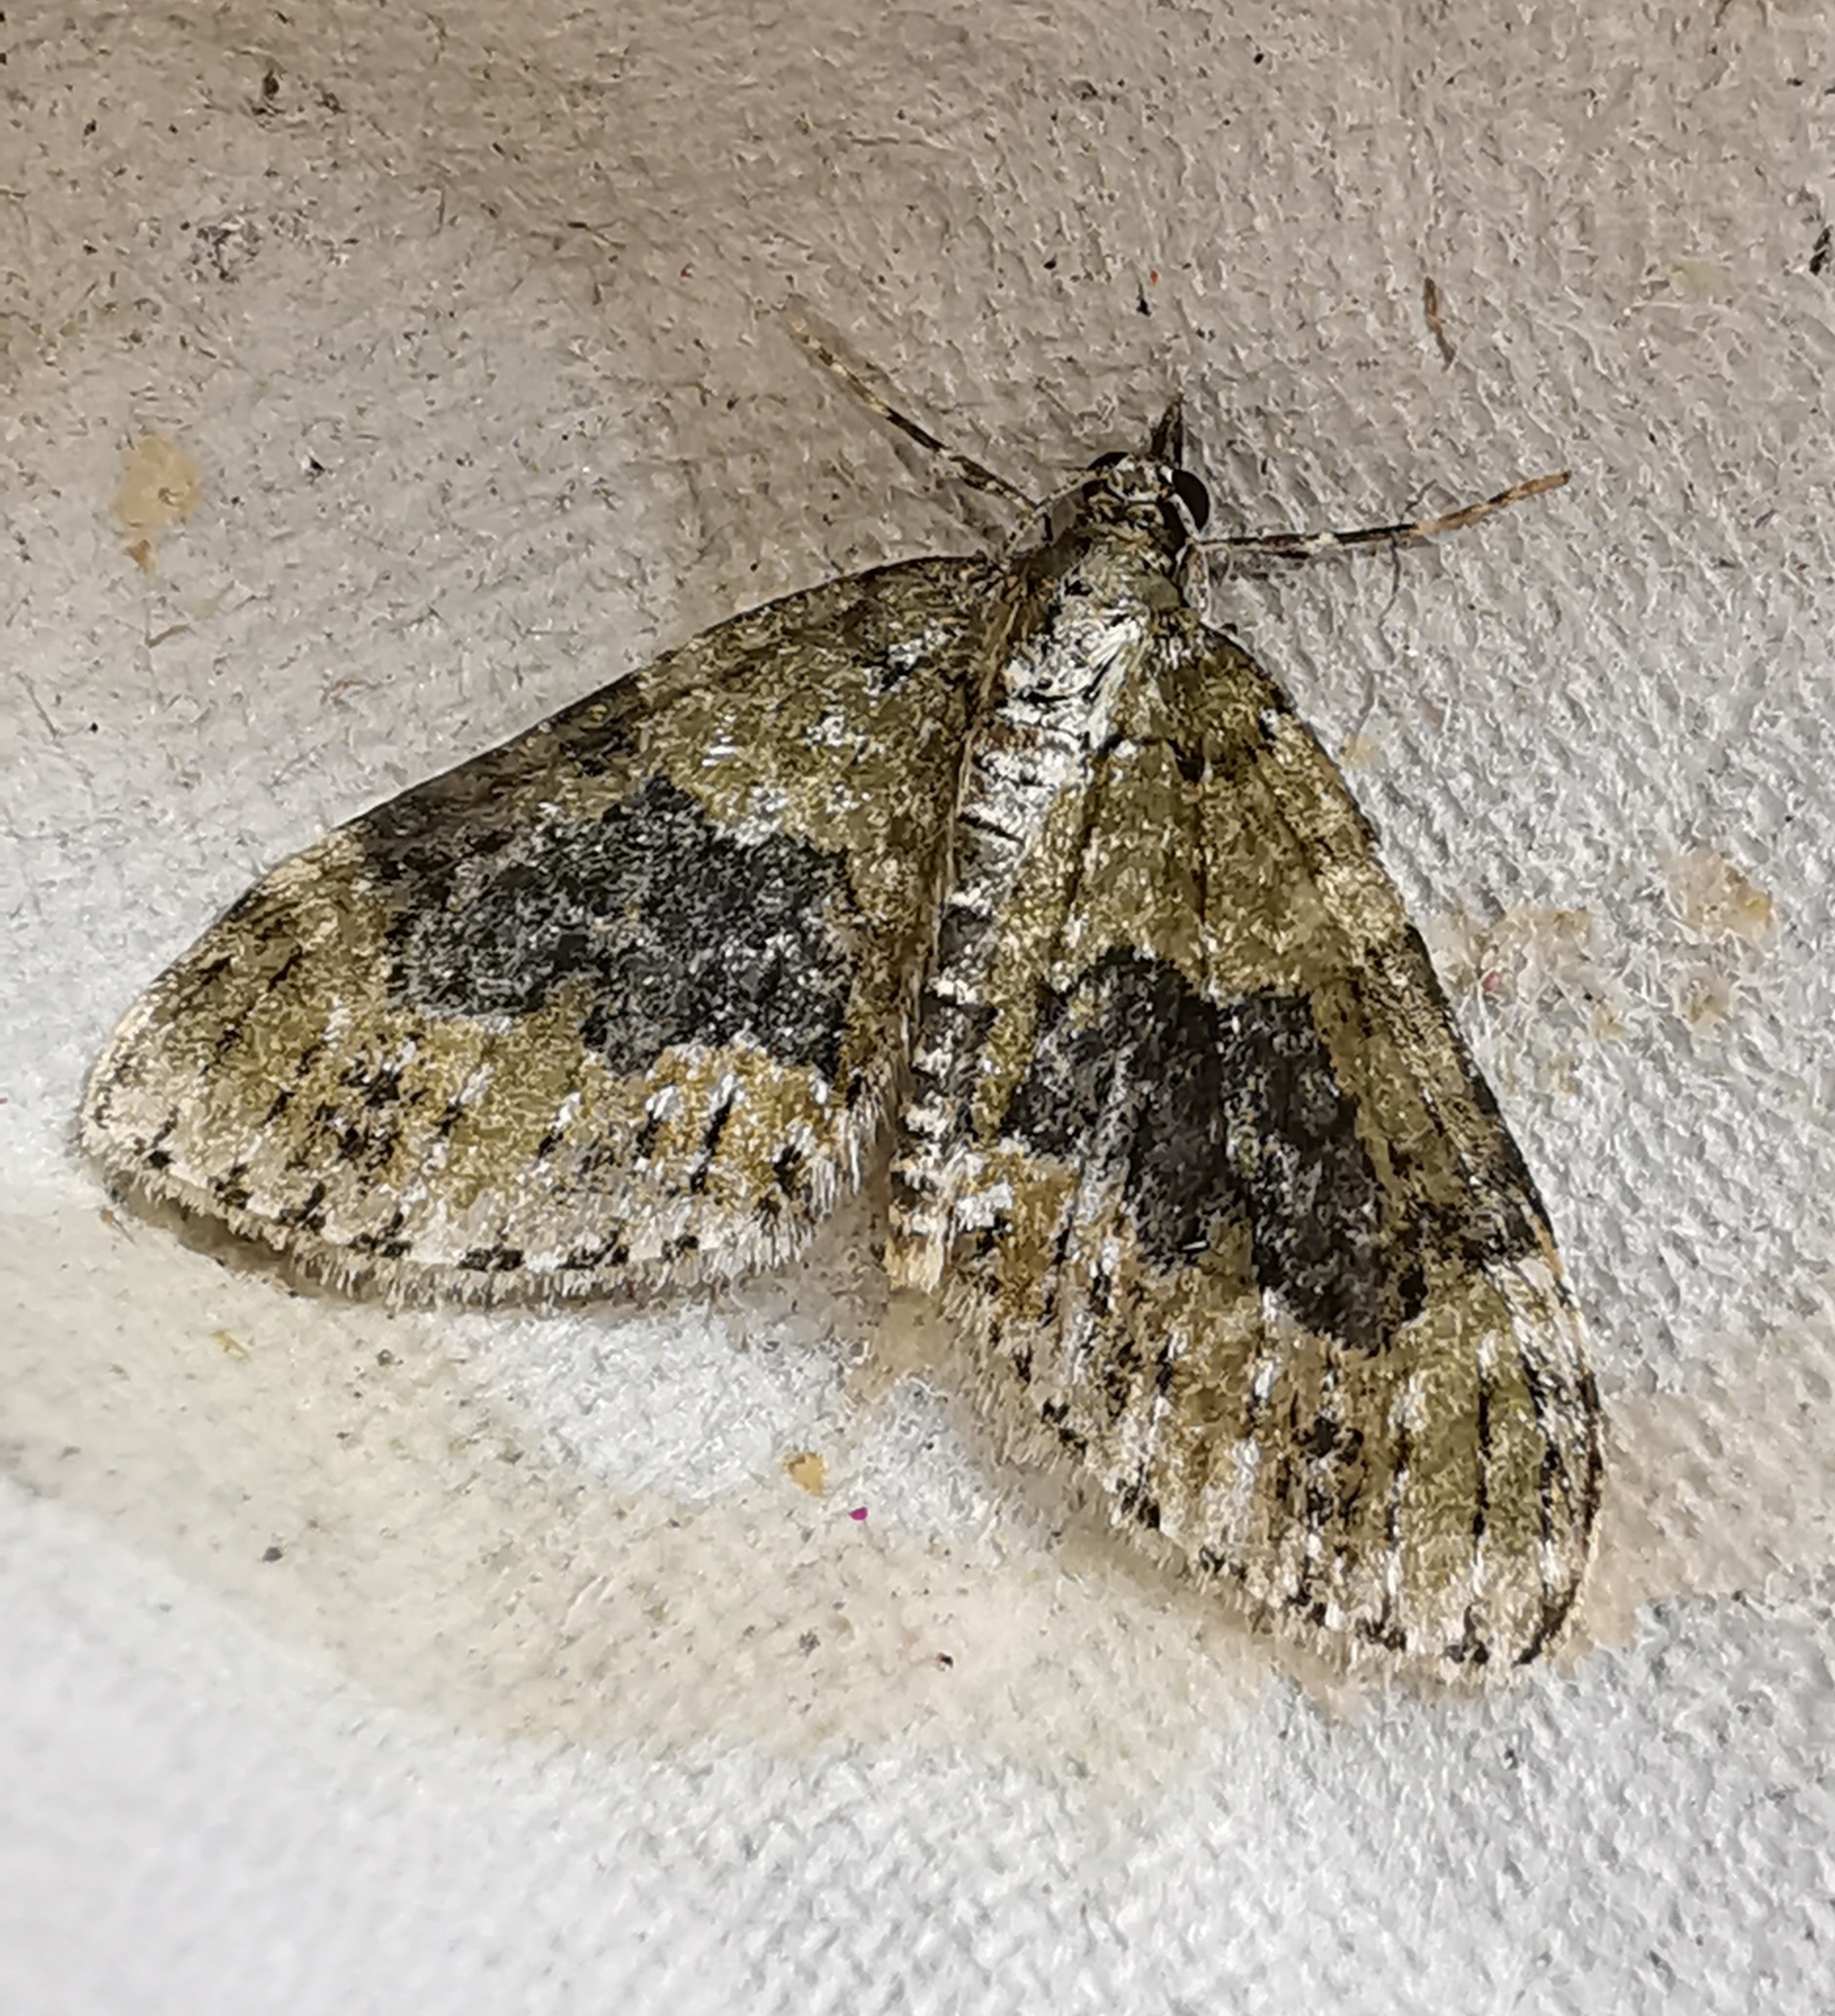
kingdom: Animalia
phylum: Arthropoda
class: Insecta
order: Lepidoptera
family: Geometridae
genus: Acasis
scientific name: Acasis viretata
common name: Yellow-barred brindle
